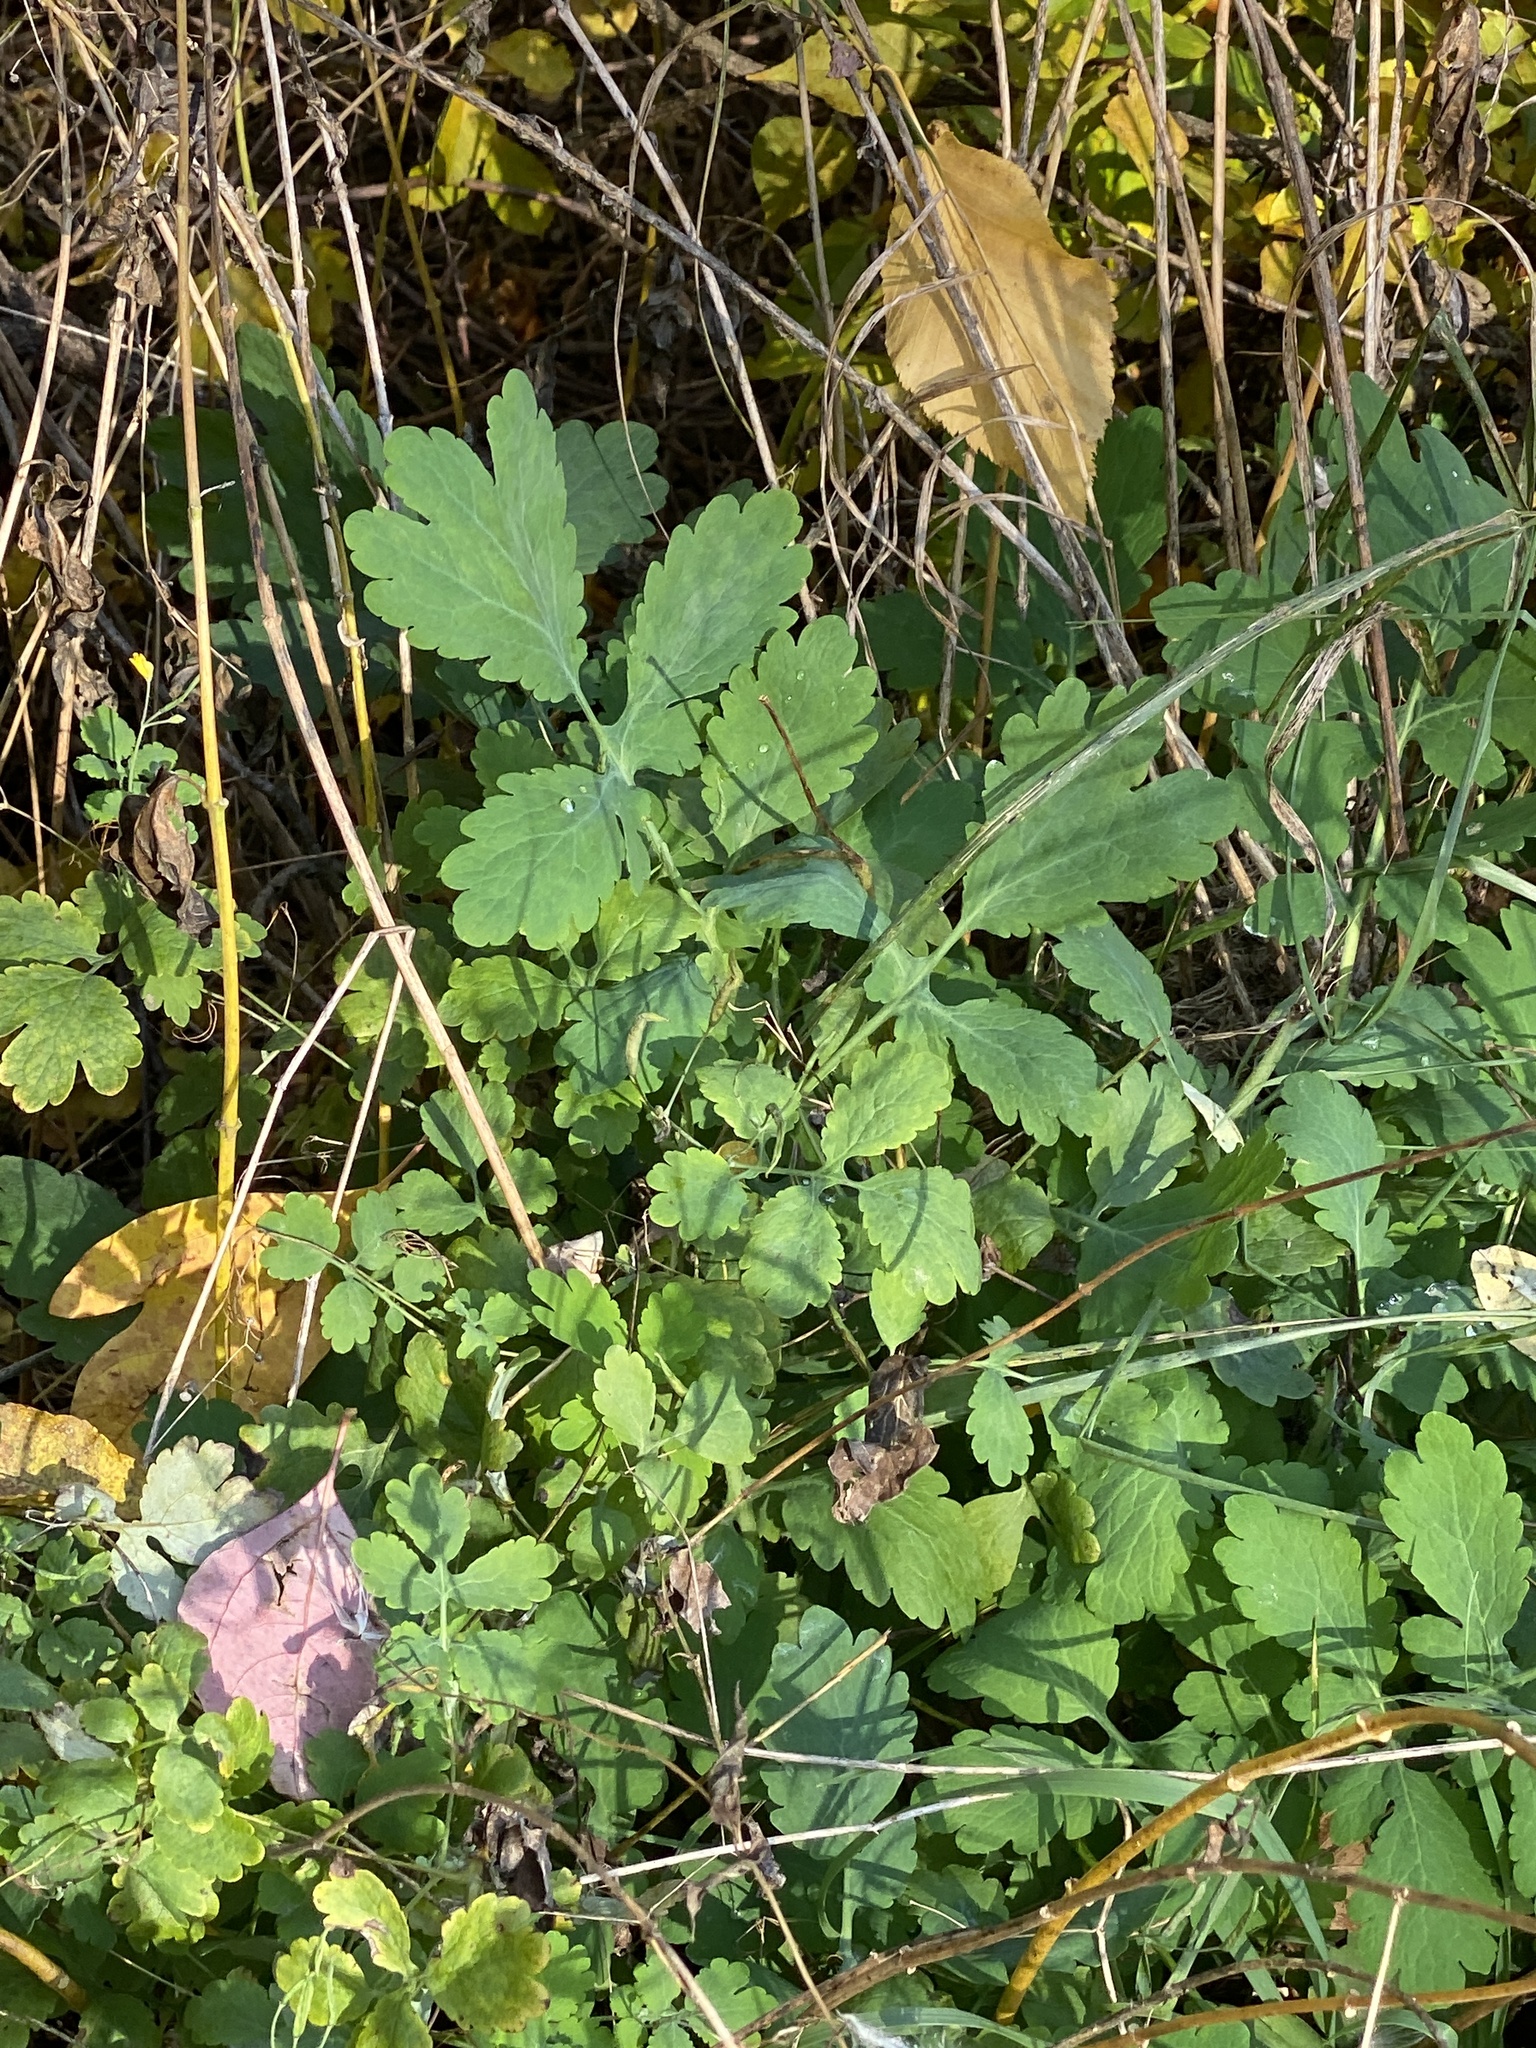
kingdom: Plantae
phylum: Tracheophyta
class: Magnoliopsida
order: Ranunculales
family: Papaveraceae
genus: Chelidonium
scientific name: Chelidonium majus
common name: Greater celandine
